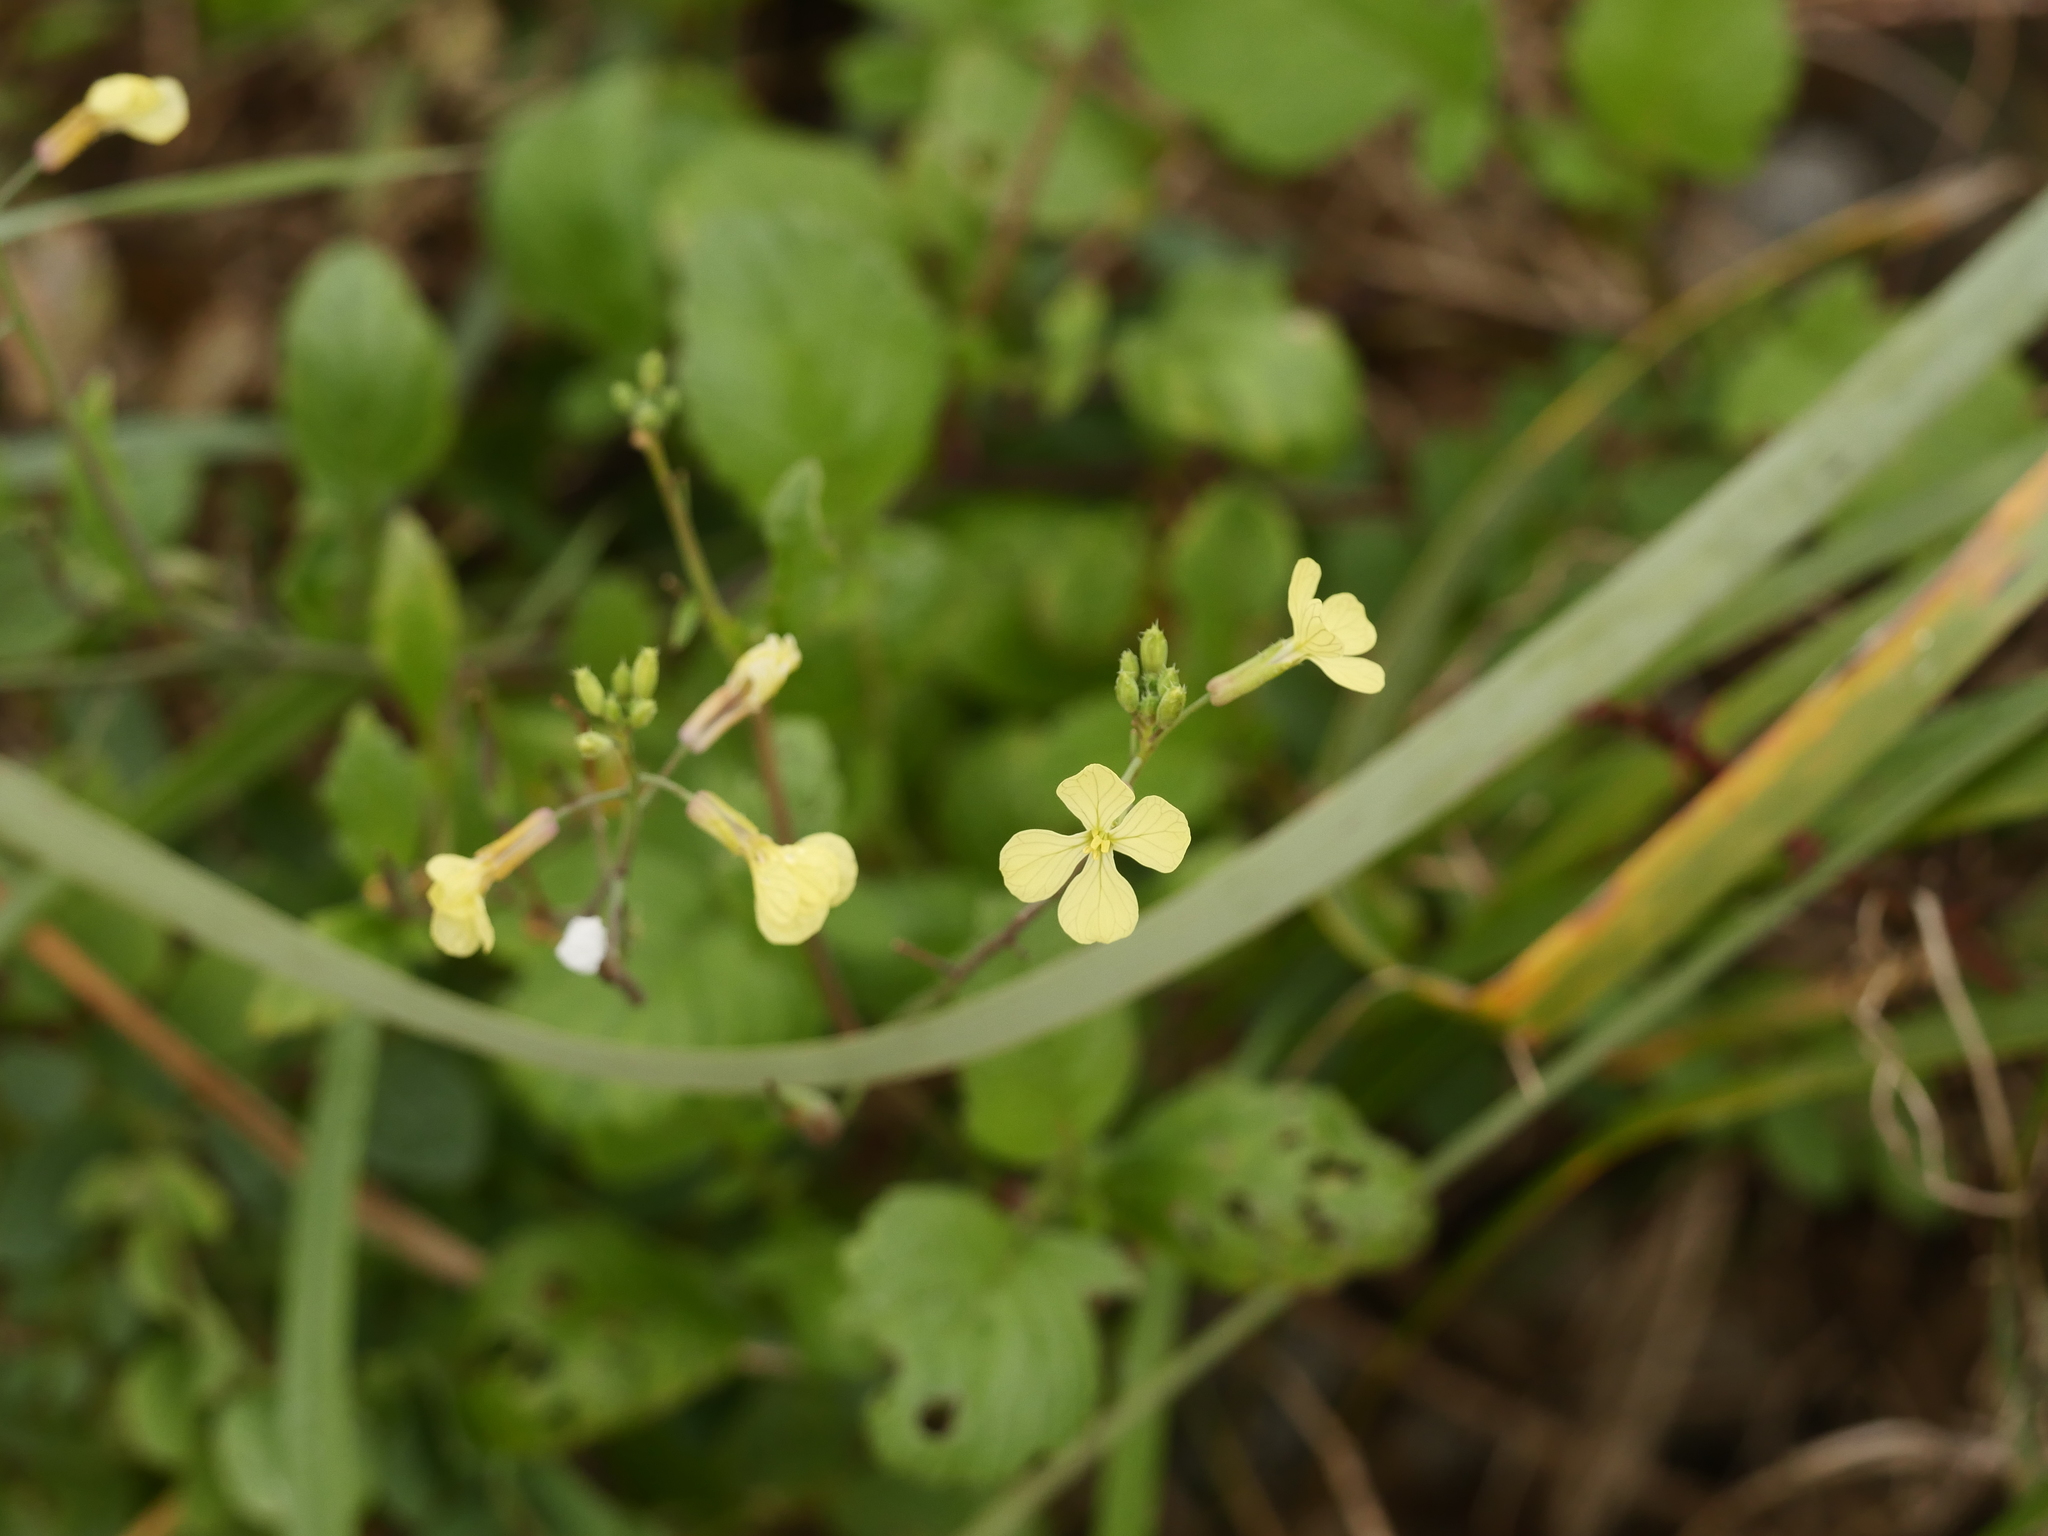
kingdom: Plantae
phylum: Tracheophyta
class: Magnoliopsida
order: Brassicales
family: Brassicaceae
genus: Raphanus
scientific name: Raphanus raphanistrum
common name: Wild radish
